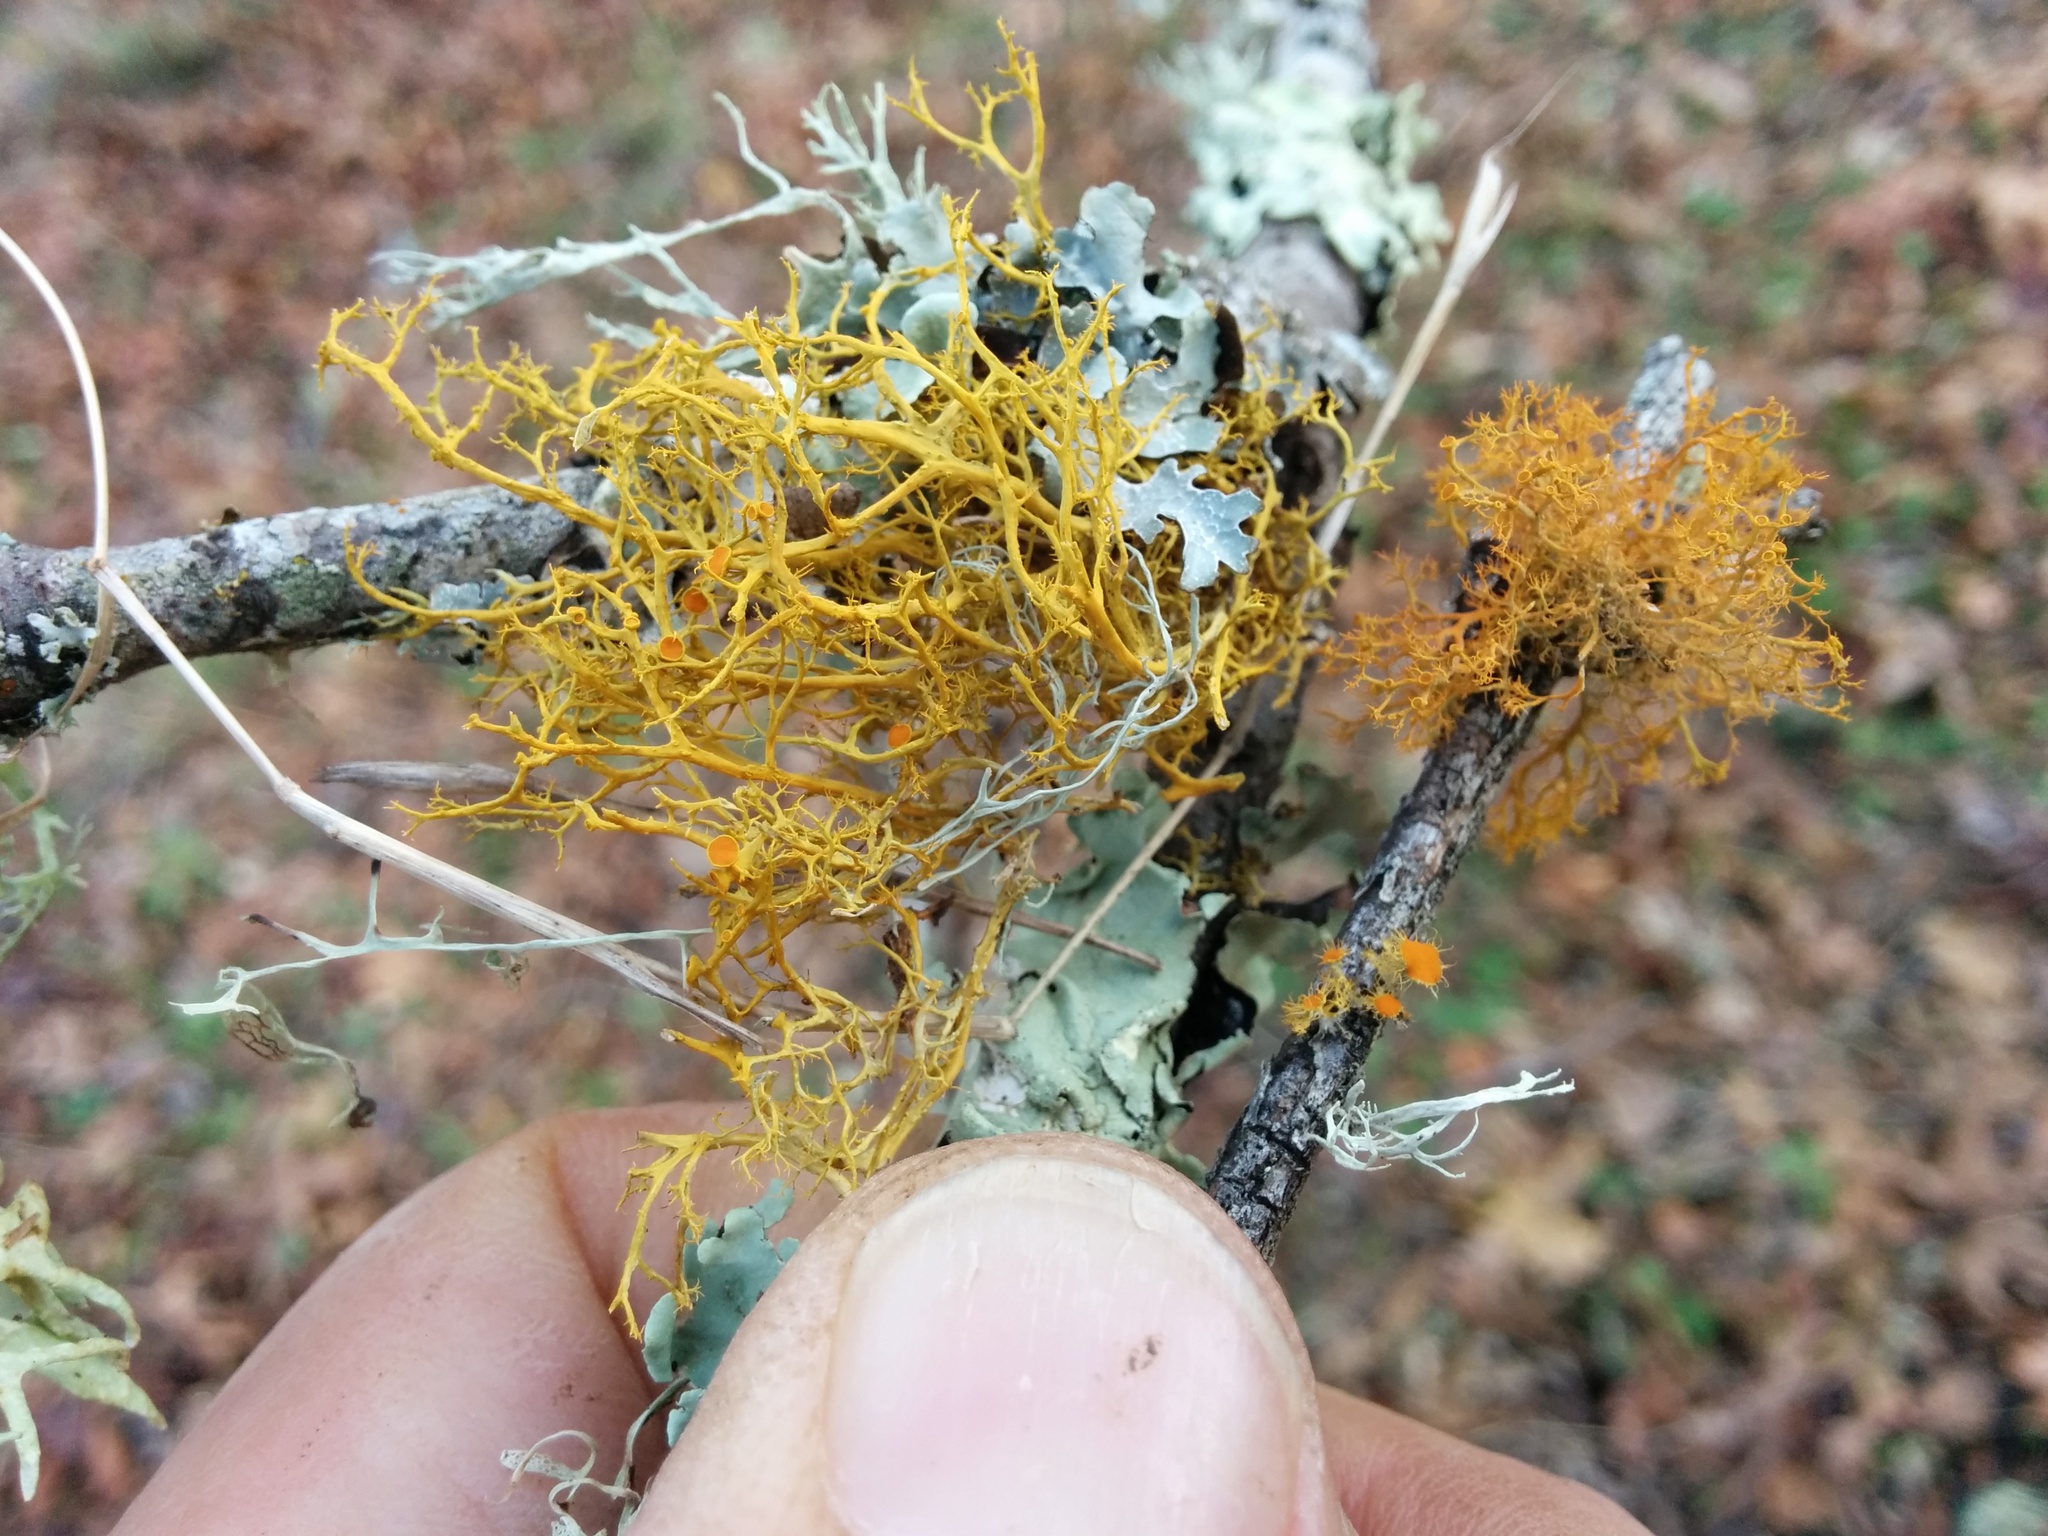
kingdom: Fungi
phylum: Ascomycota
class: Lecanoromycetes
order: Teloschistales
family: Teloschistaceae
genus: Teloschistes
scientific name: Teloschistes flavicans
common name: Golden hair-lichen
